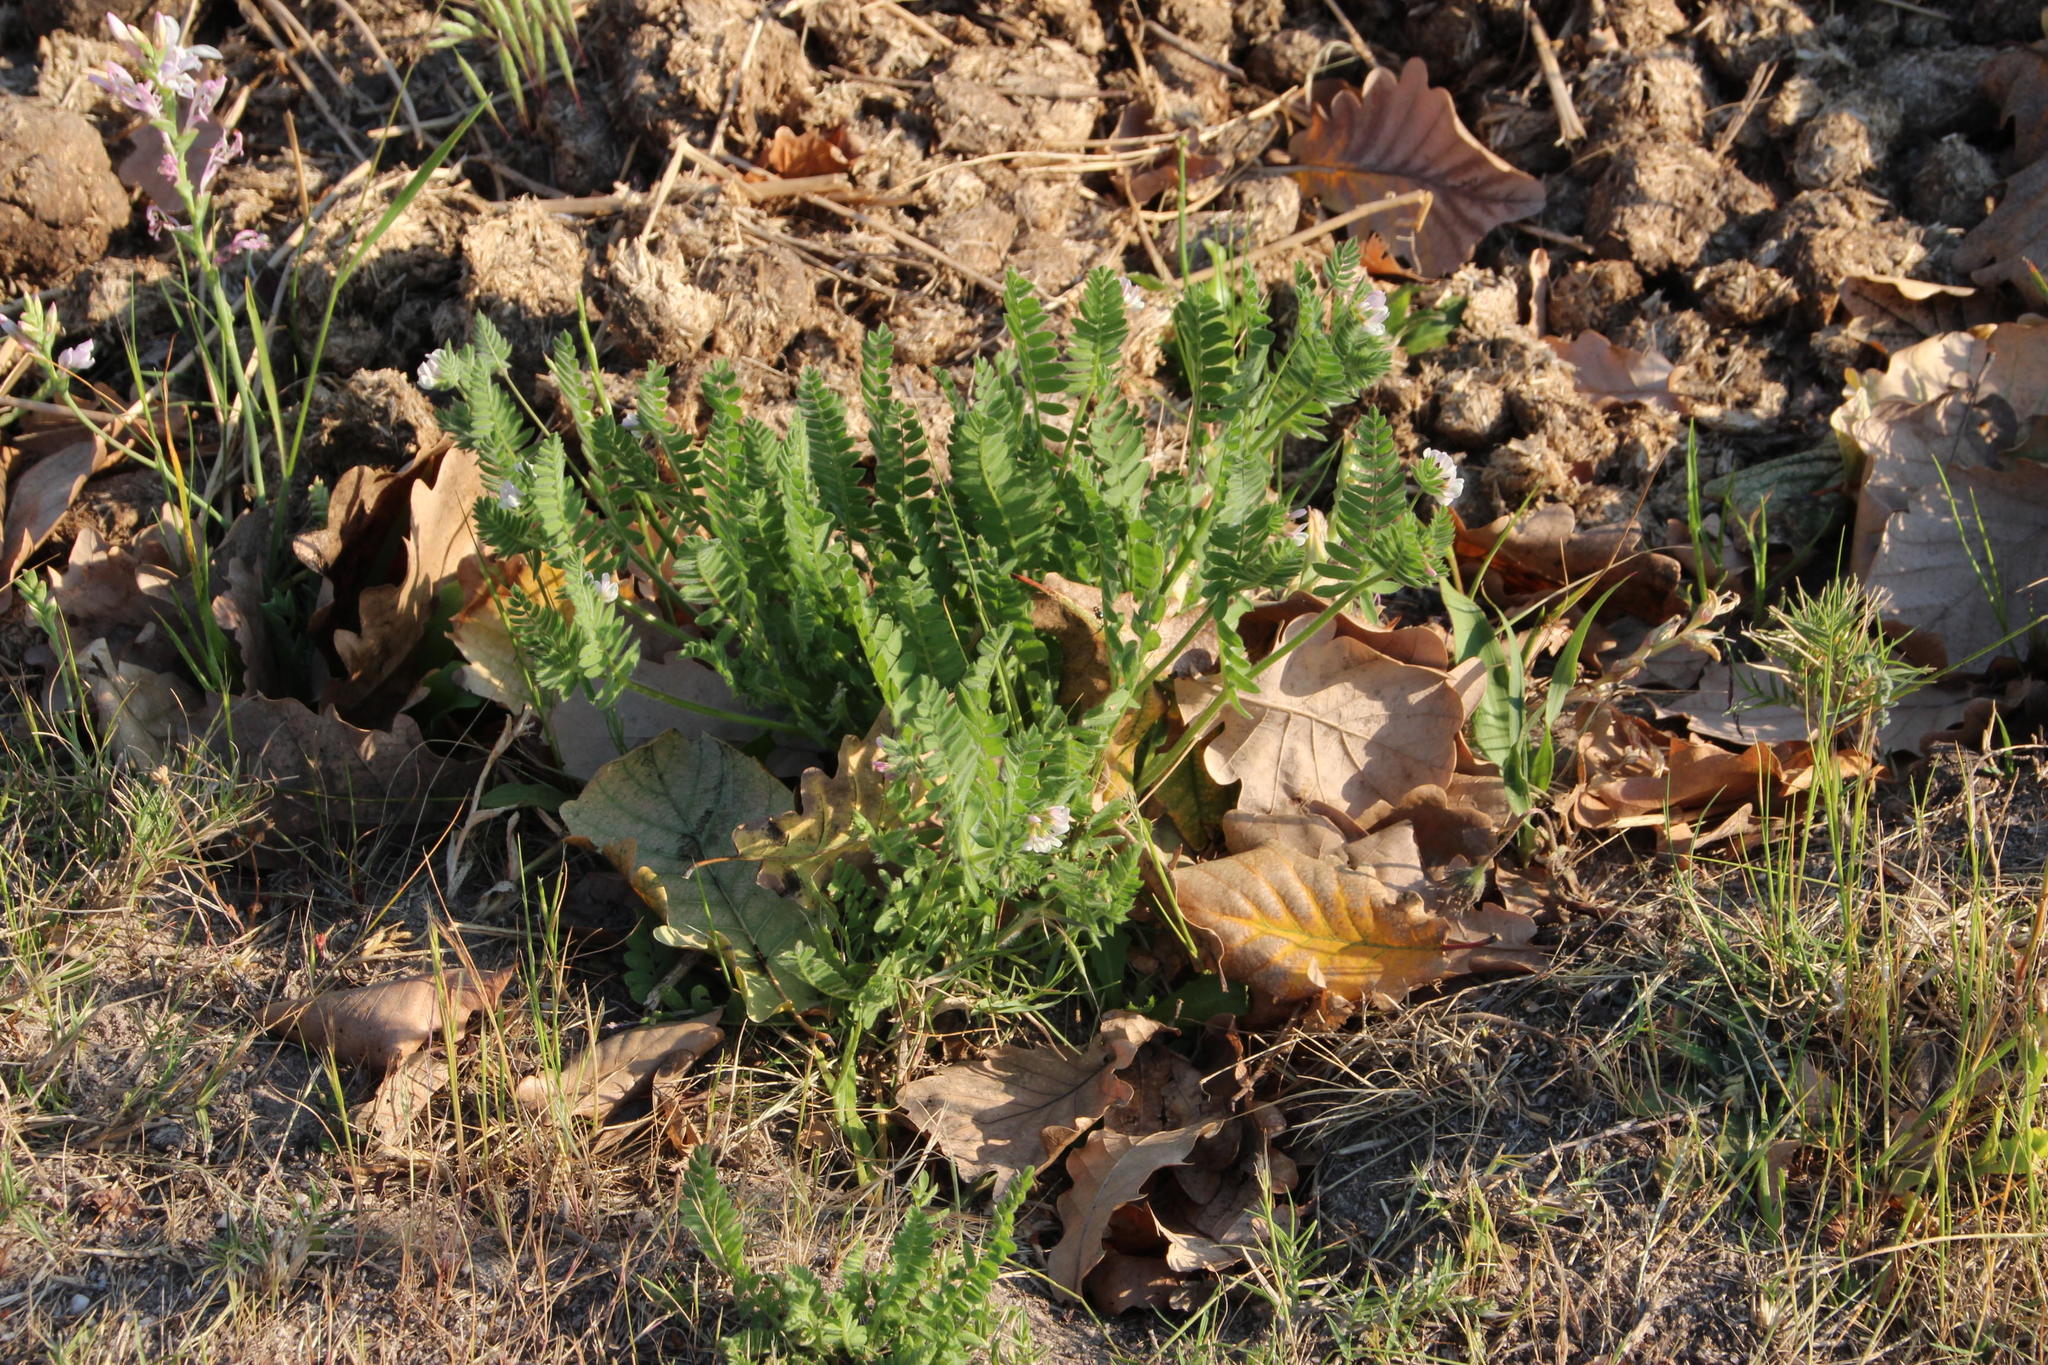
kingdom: Plantae
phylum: Tracheophyta
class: Magnoliopsida
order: Fabales
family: Fabaceae
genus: Ornithopus
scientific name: Ornithopus sativus
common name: Serradella
